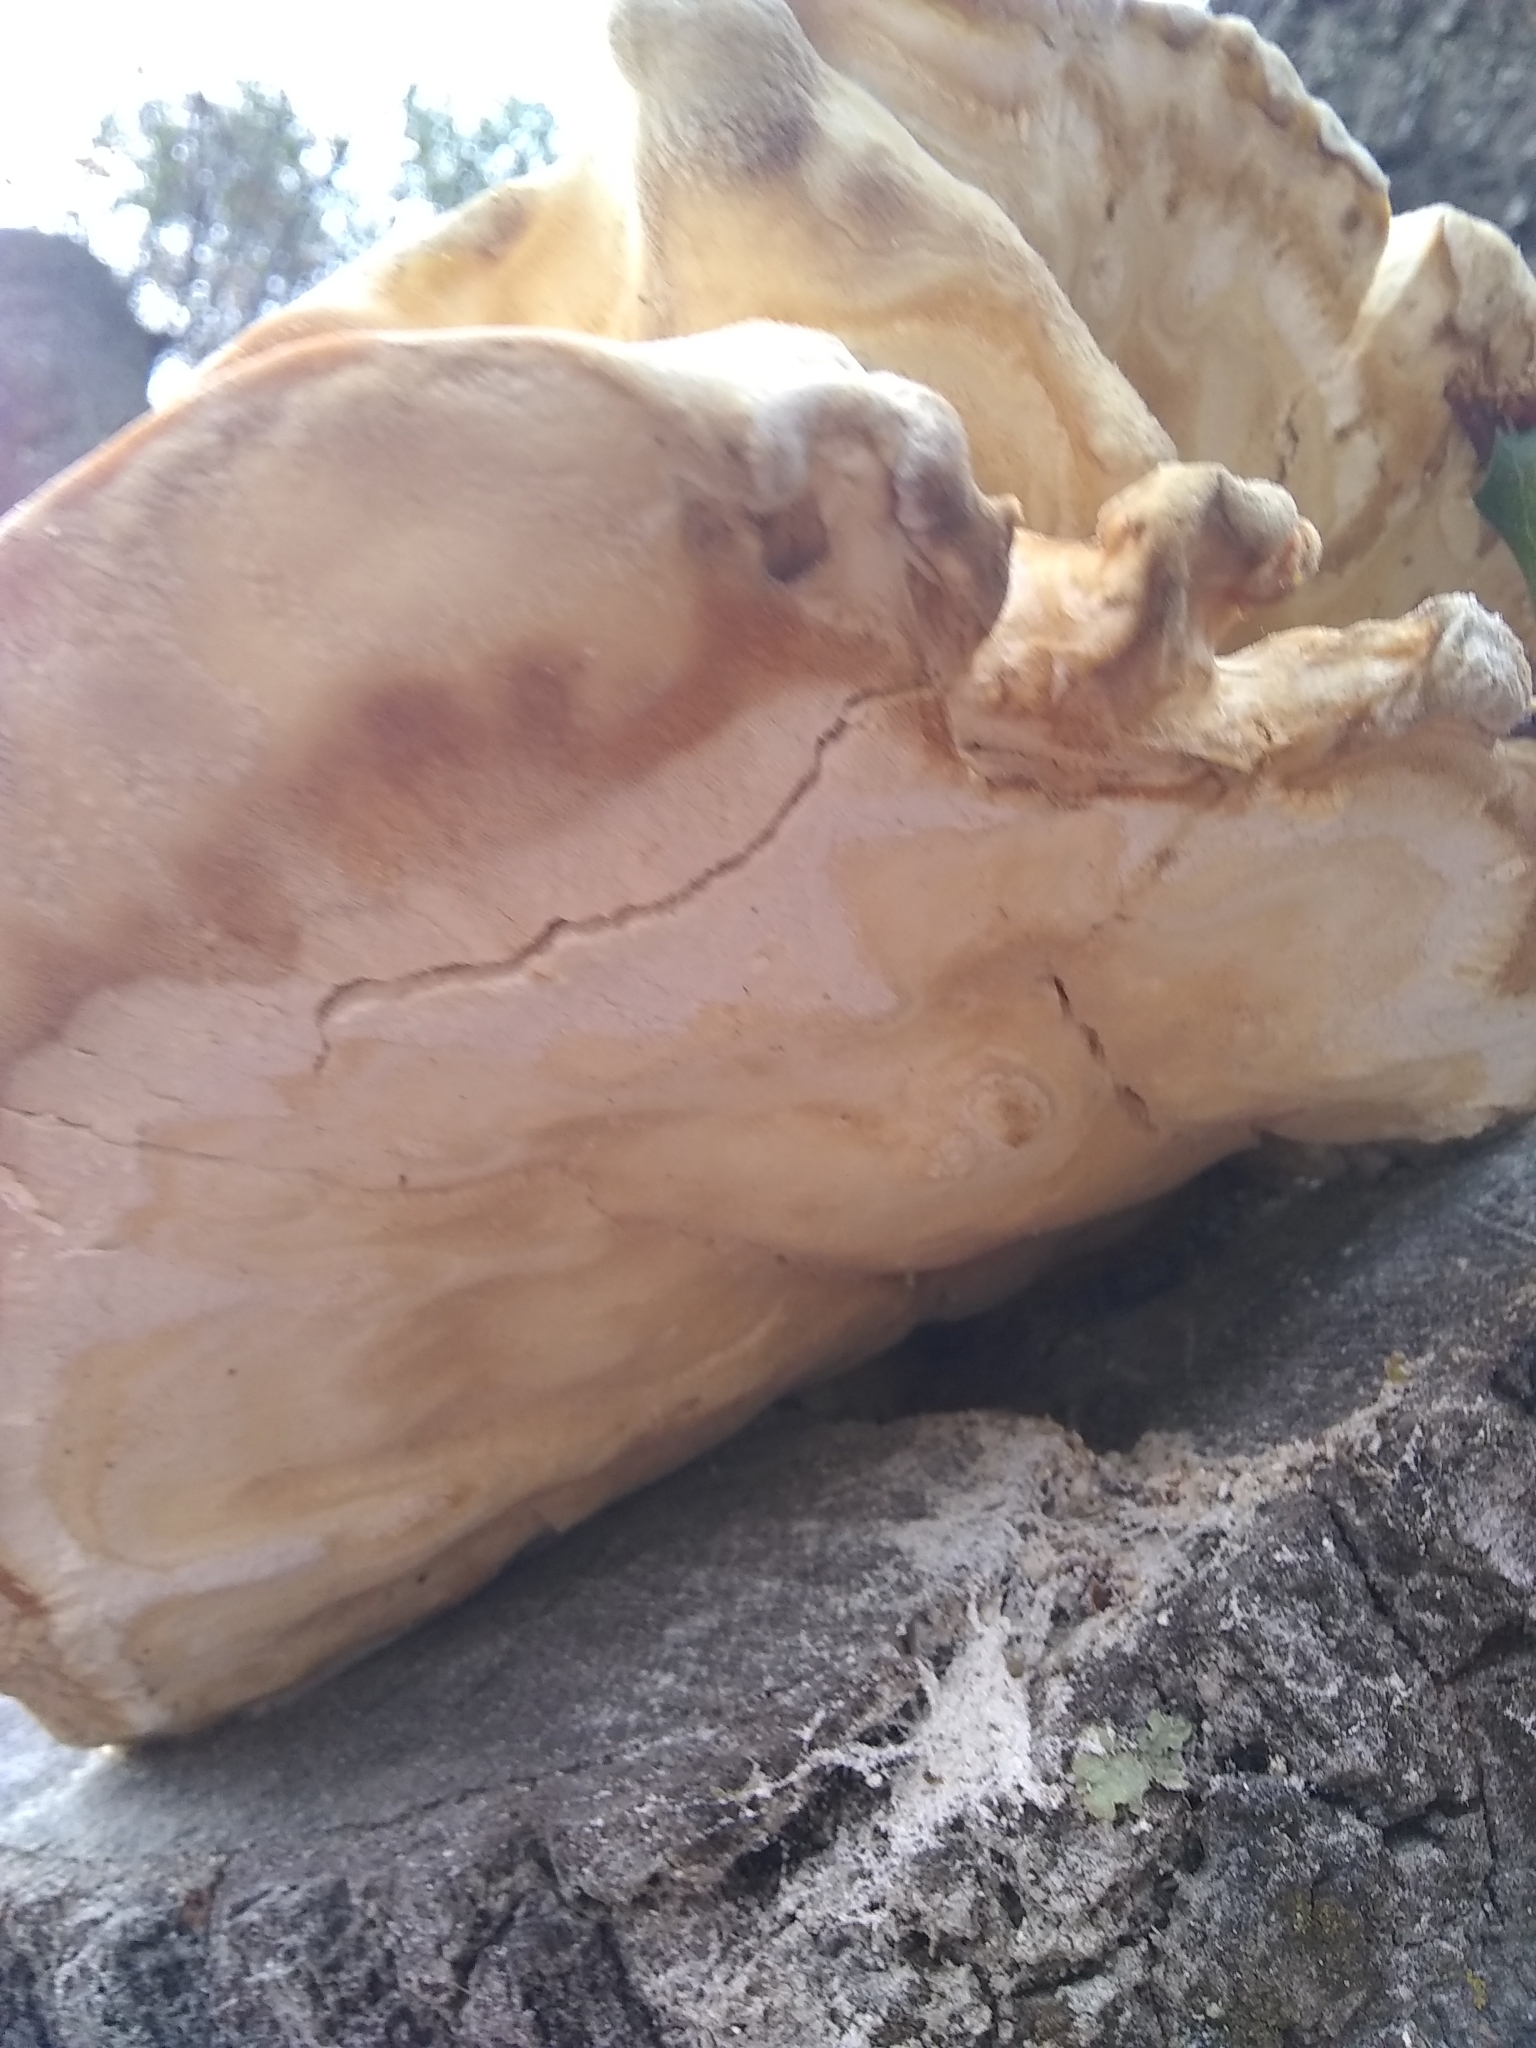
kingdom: Fungi
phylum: Basidiomycota
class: Agaricomycetes
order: Polyporales
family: Laetiporaceae
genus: Laetiporus
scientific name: Laetiporus gilbertsonii
